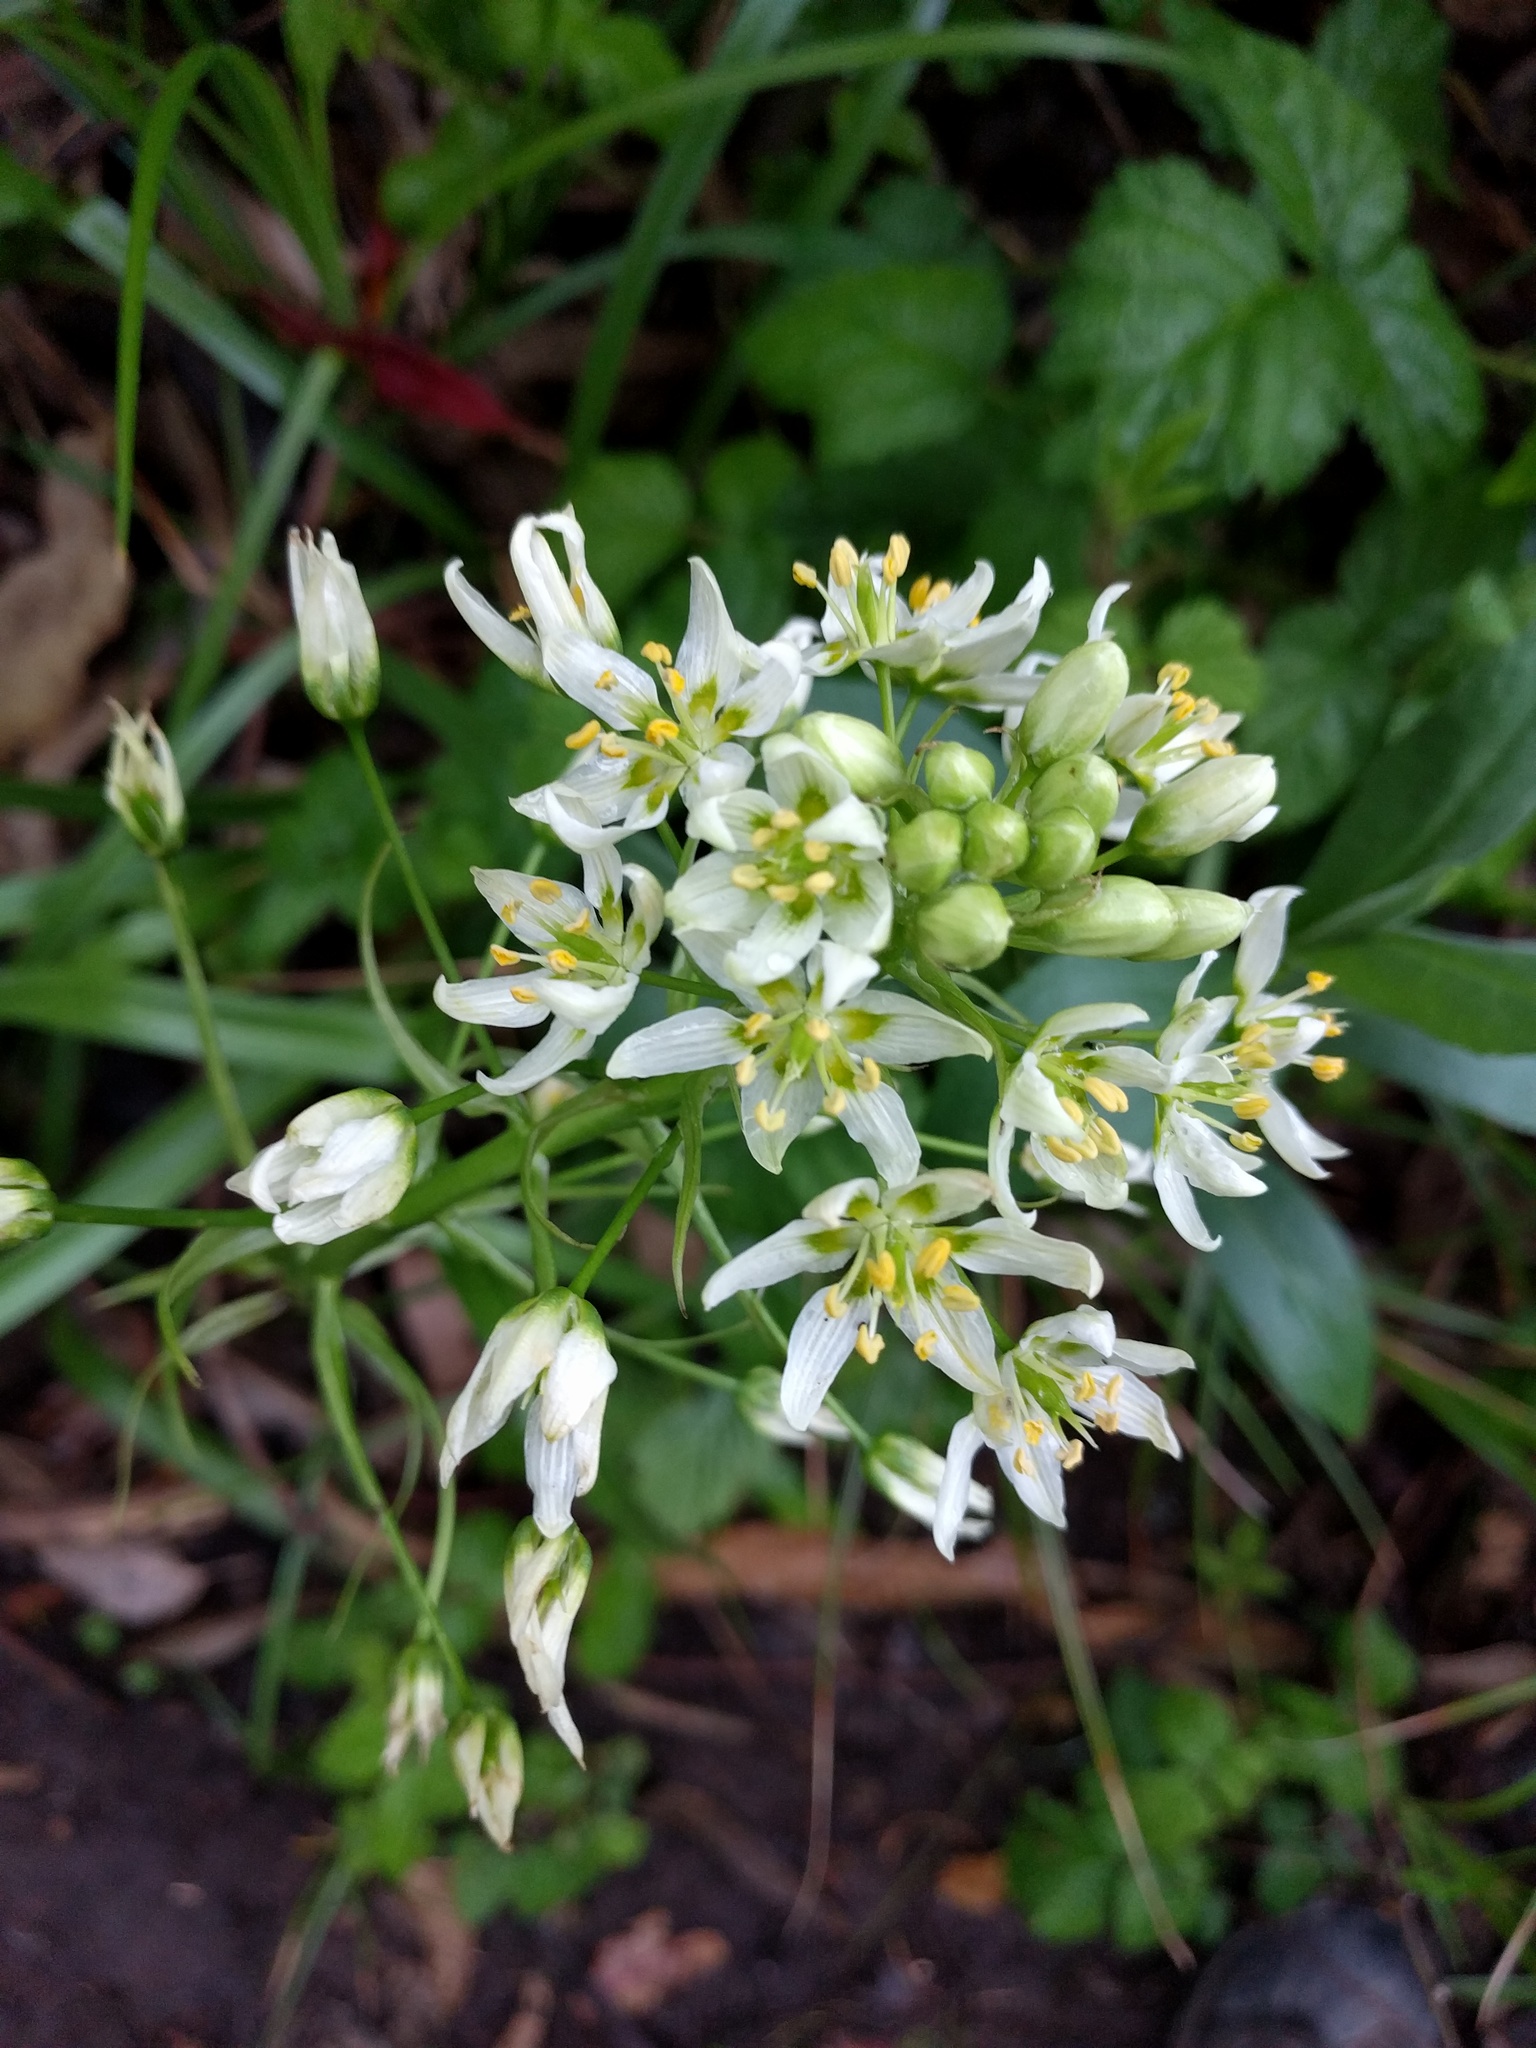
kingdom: Plantae
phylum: Tracheophyta
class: Liliopsida
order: Liliales
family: Melanthiaceae
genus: Toxicoscordion
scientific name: Toxicoscordion fremontii
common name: Fremont's death camas
